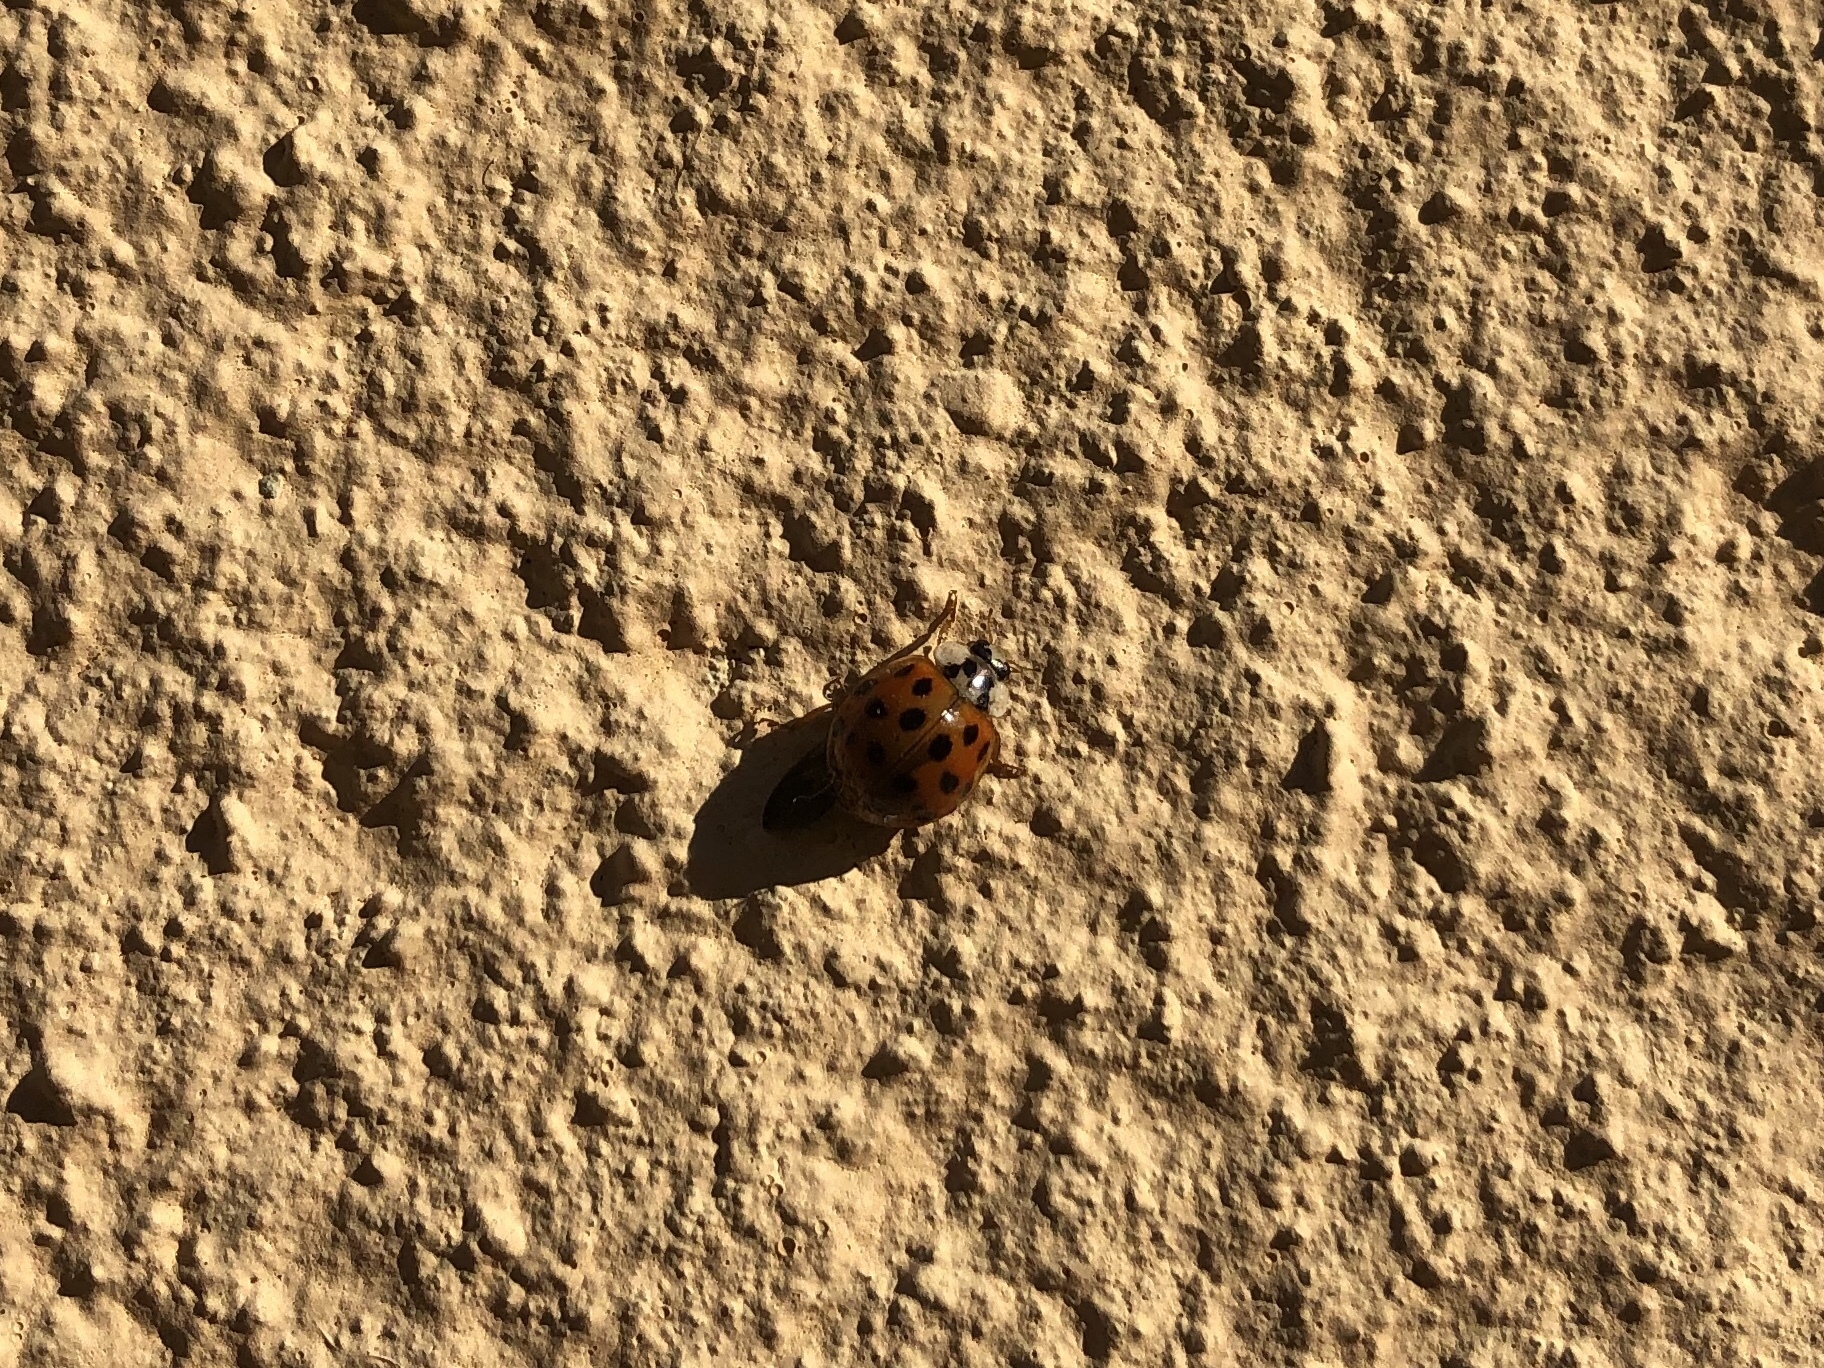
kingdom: Animalia
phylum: Arthropoda
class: Insecta
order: Coleoptera
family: Coccinellidae
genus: Harmonia
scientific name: Harmonia axyridis
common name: Harlequin ladybird
